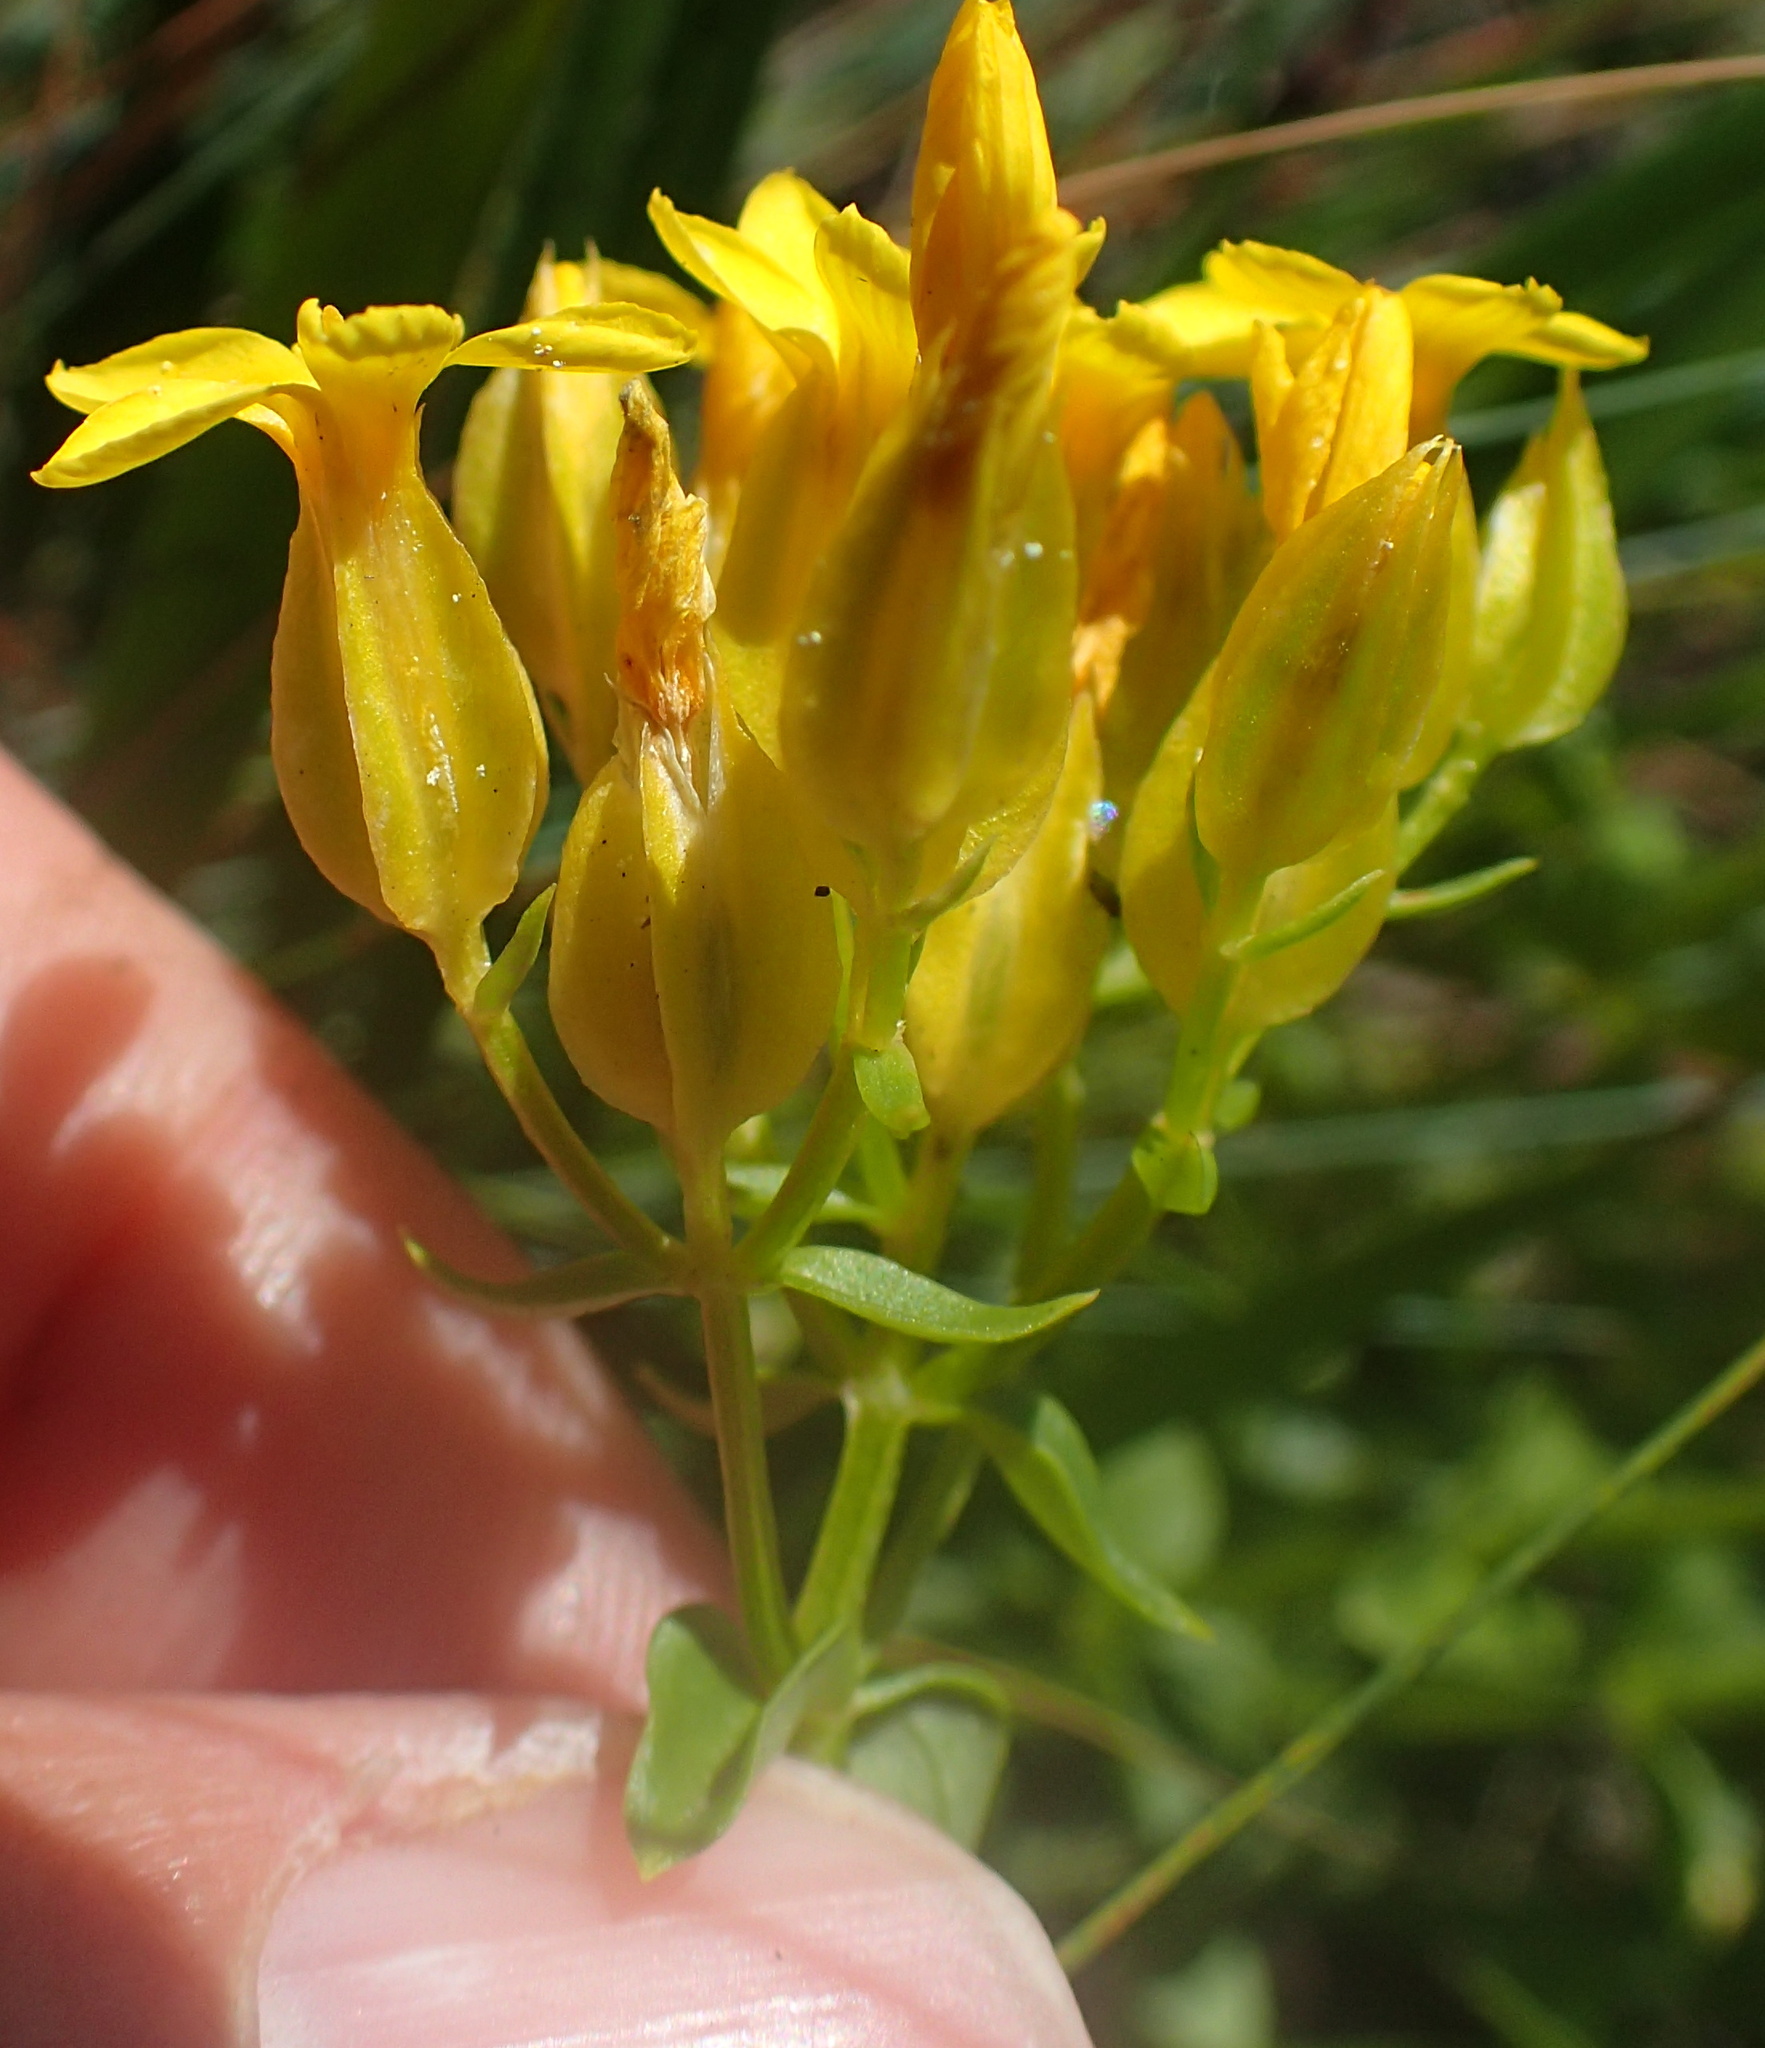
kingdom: Plantae
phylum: Tracheophyta
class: Magnoliopsida
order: Gentianales
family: Gentianaceae
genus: Sebaea
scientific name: Sebaea natalensis
